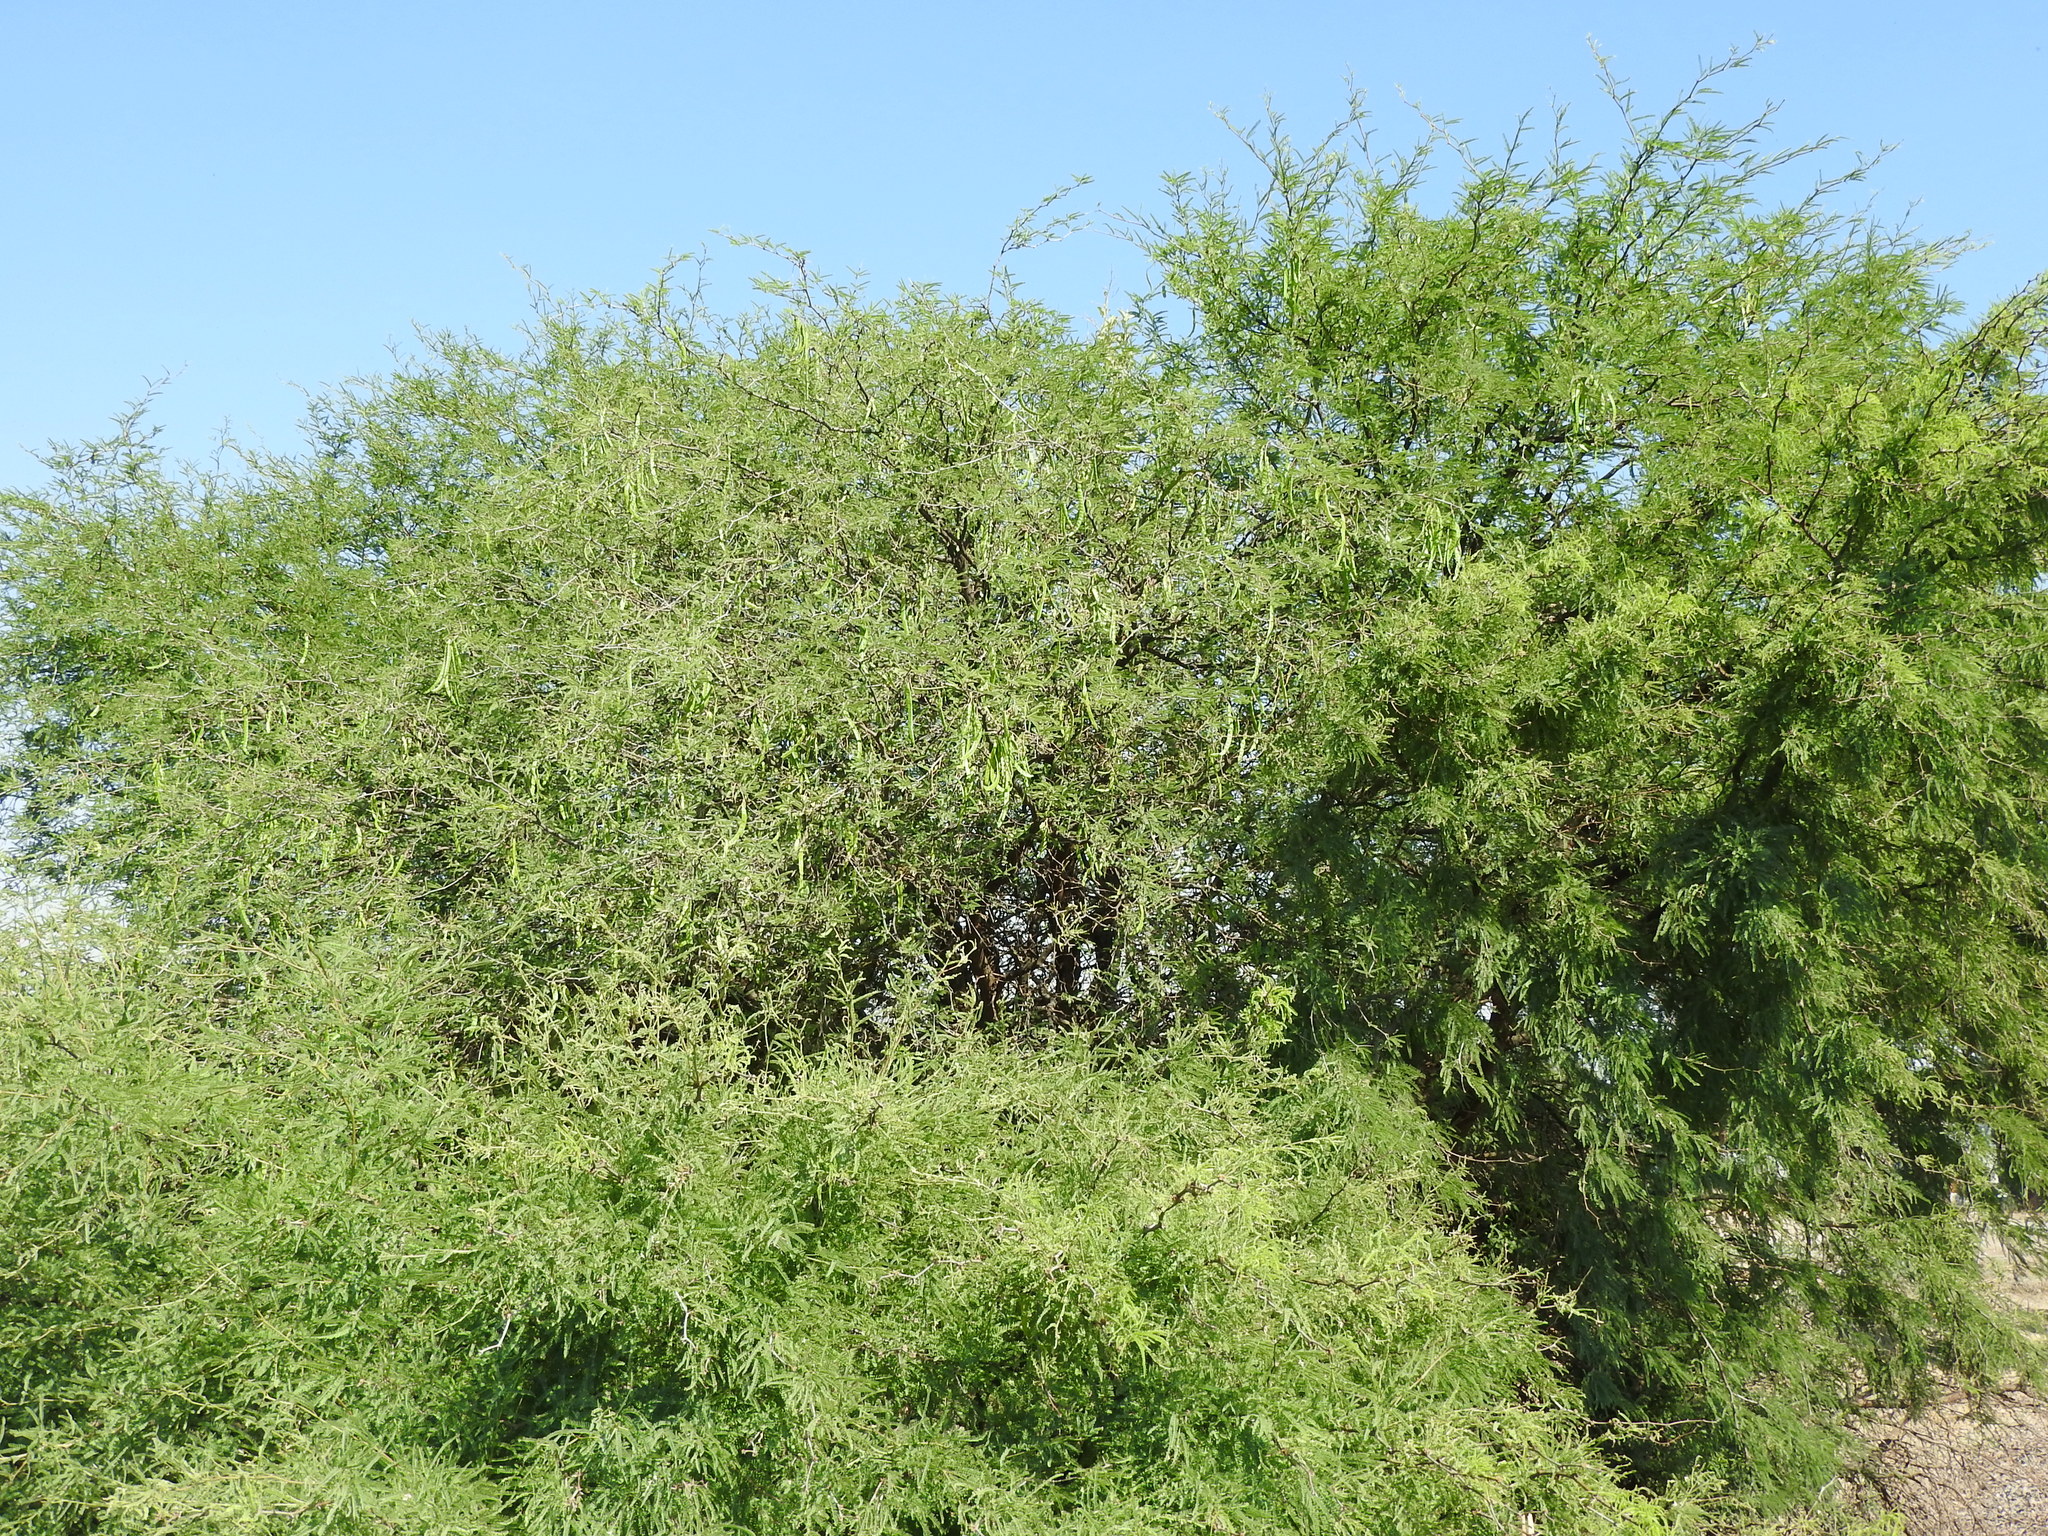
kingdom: Plantae
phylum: Tracheophyta
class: Magnoliopsida
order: Fabales
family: Fabaceae
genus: Prosopis
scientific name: Prosopis laevigata
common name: Smooth mesquite
